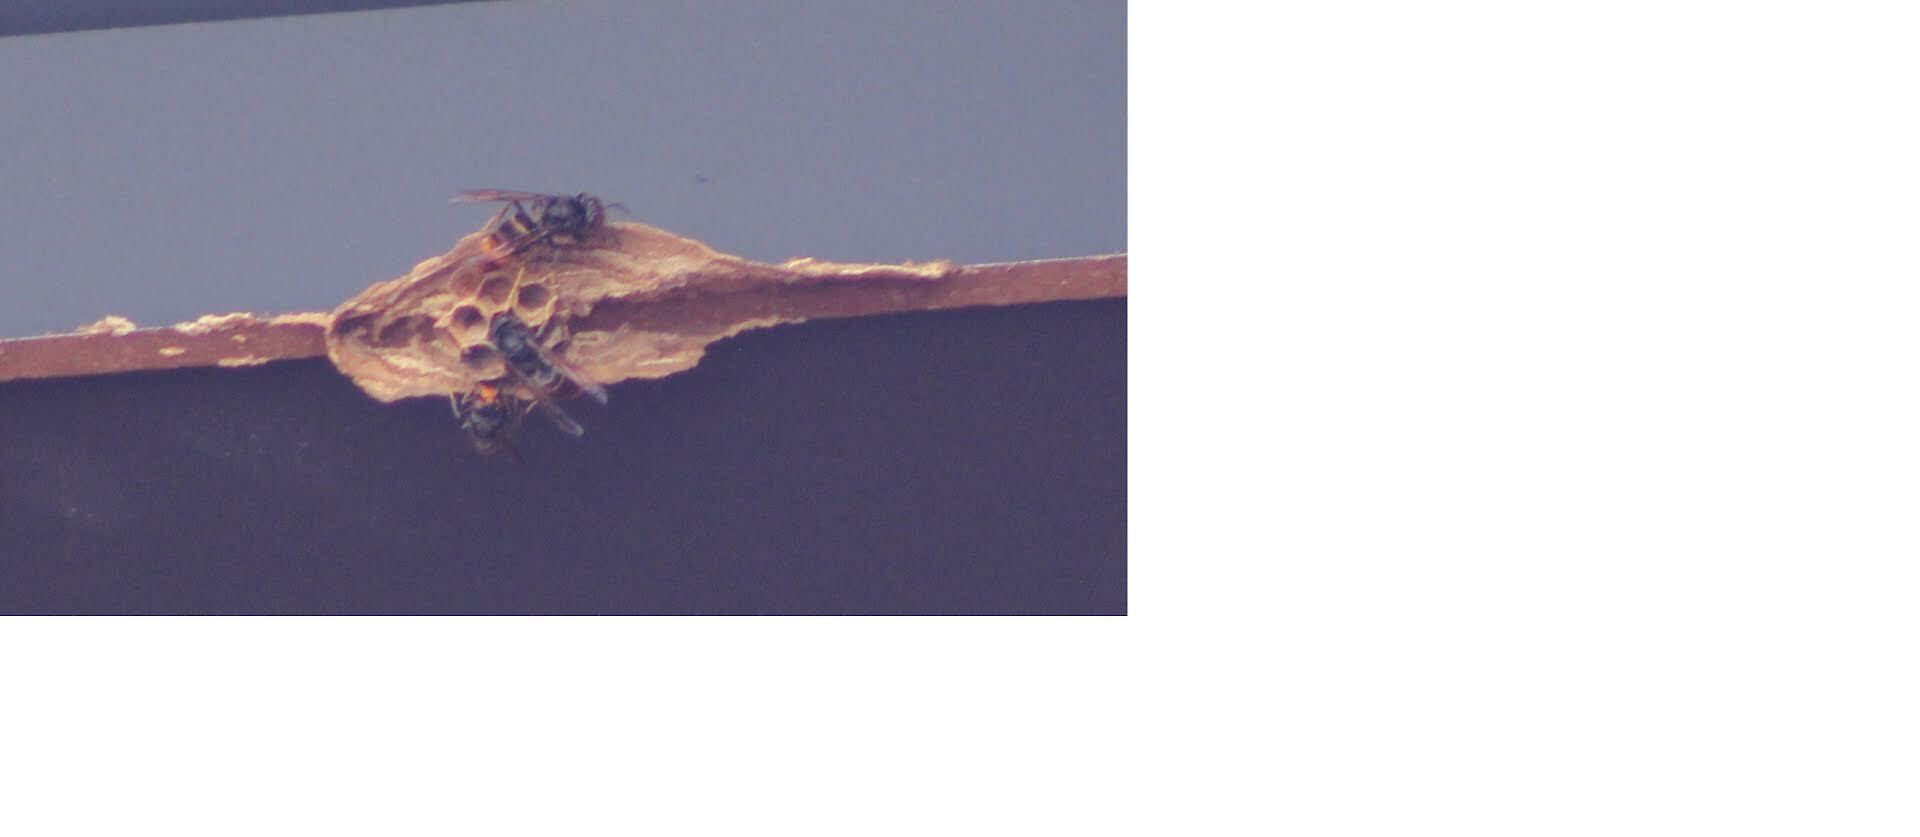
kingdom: Animalia
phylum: Arthropoda
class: Insecta
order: Hymenoptera
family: Vespidae
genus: Vespa
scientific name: Vespa velutina
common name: Asian hornet
